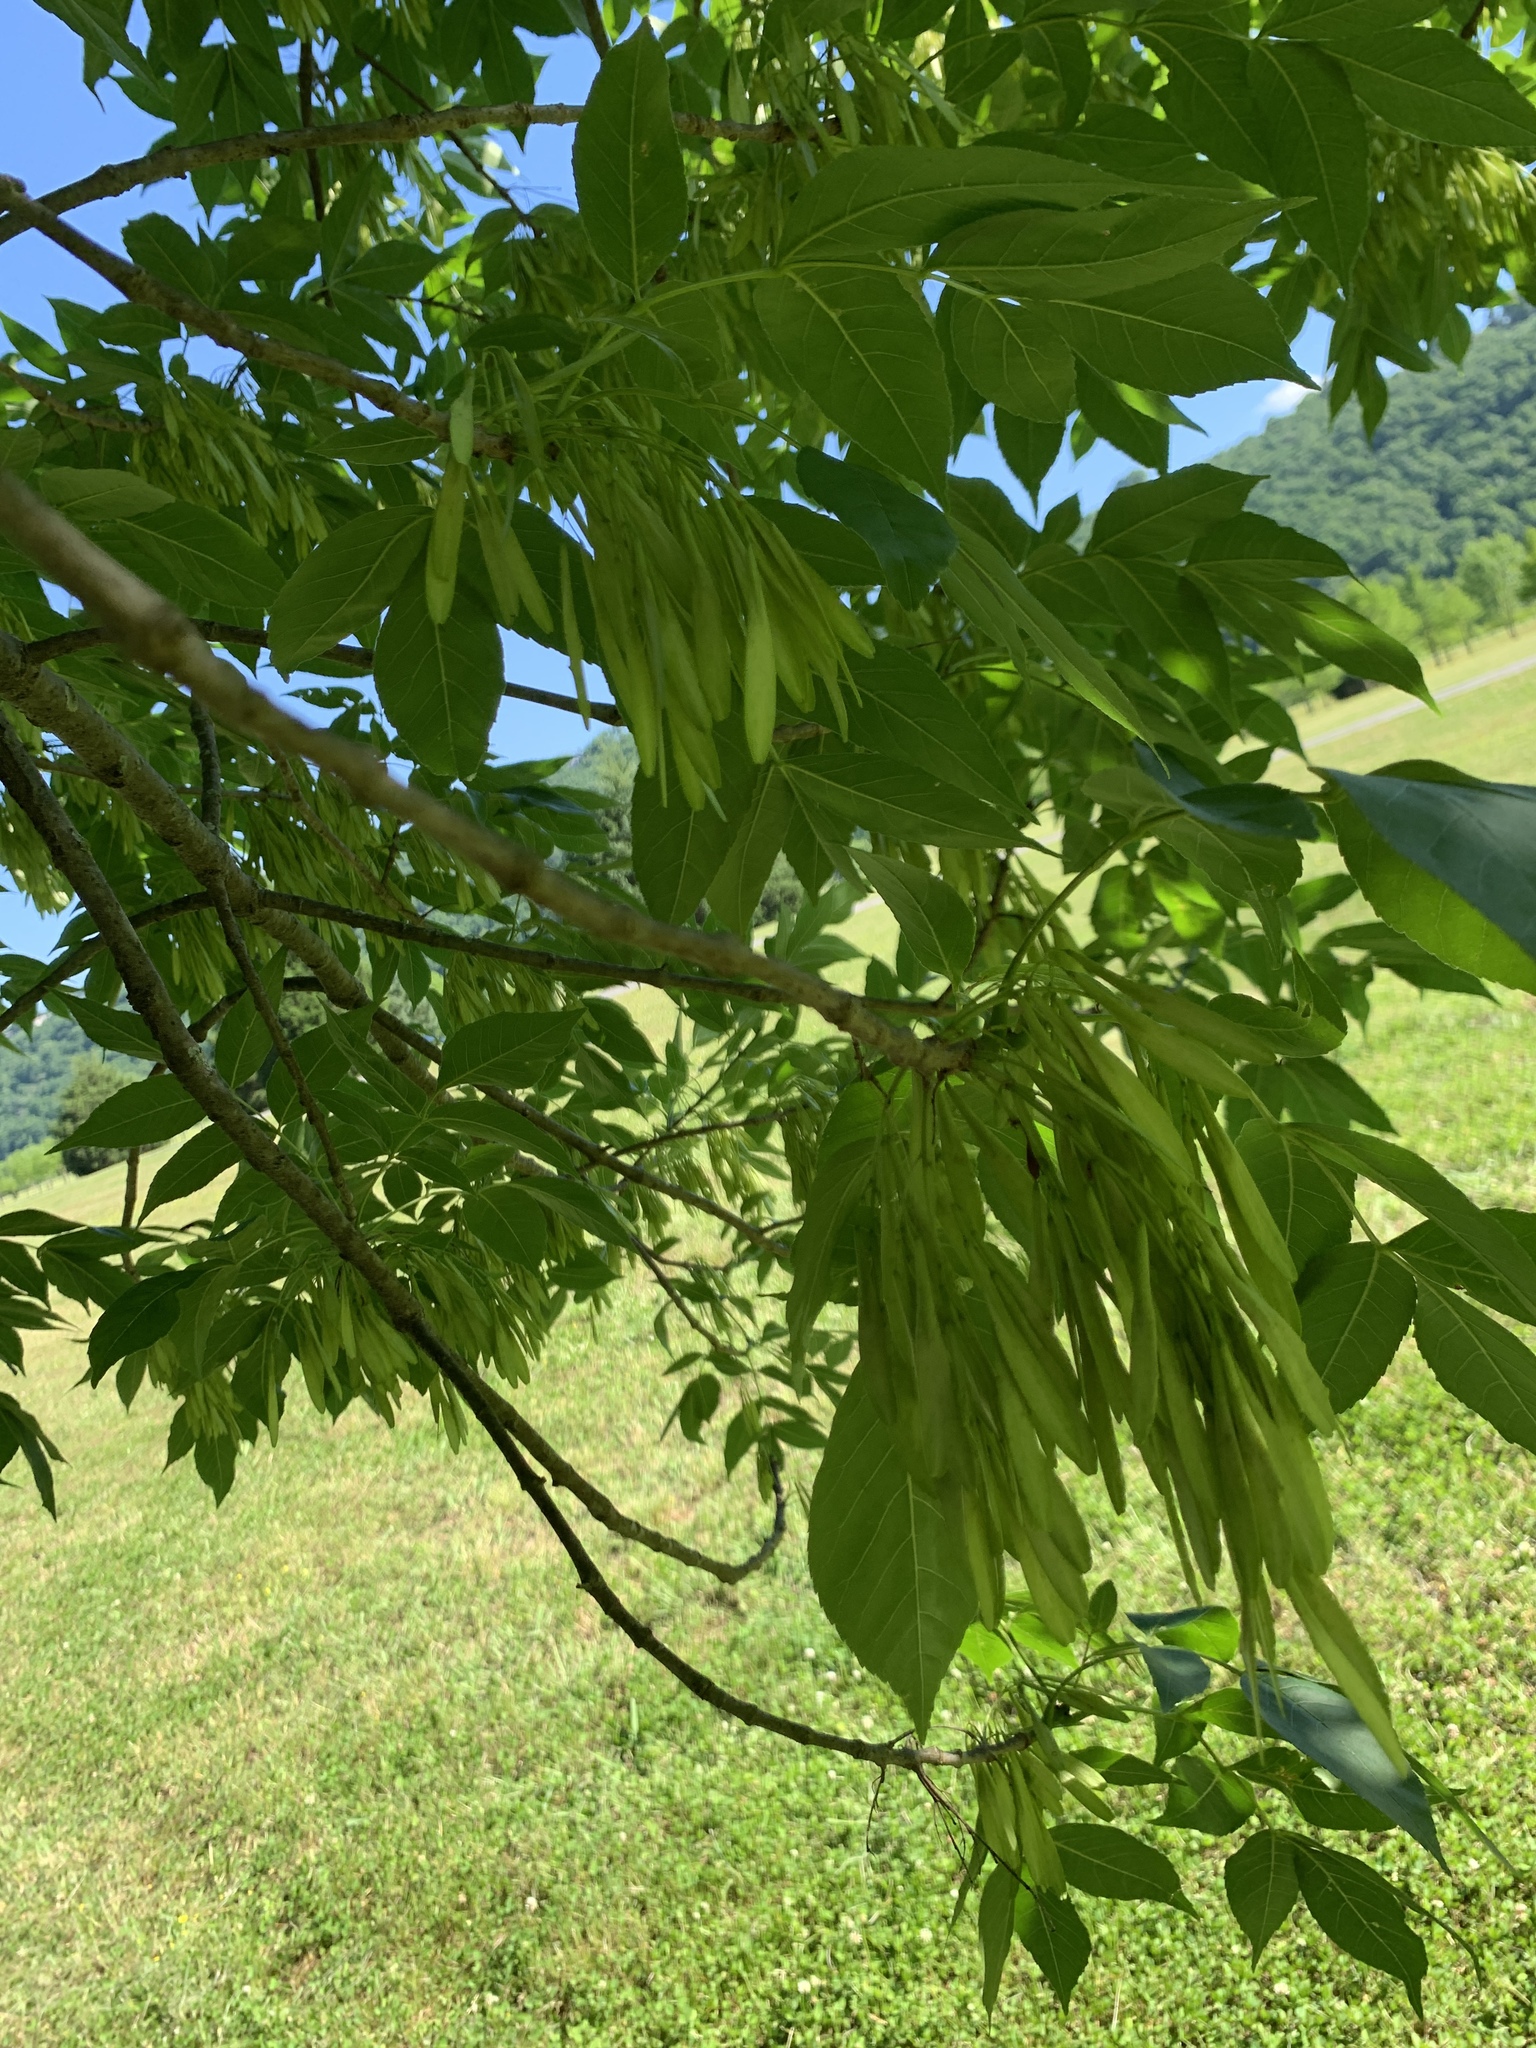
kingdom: Plantae
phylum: Tracheophyta
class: Magnoliopsida
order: Lamiales
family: Oleaceae
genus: Fraxinus
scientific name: Fraxinus pennsylvanica
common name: Green ash
